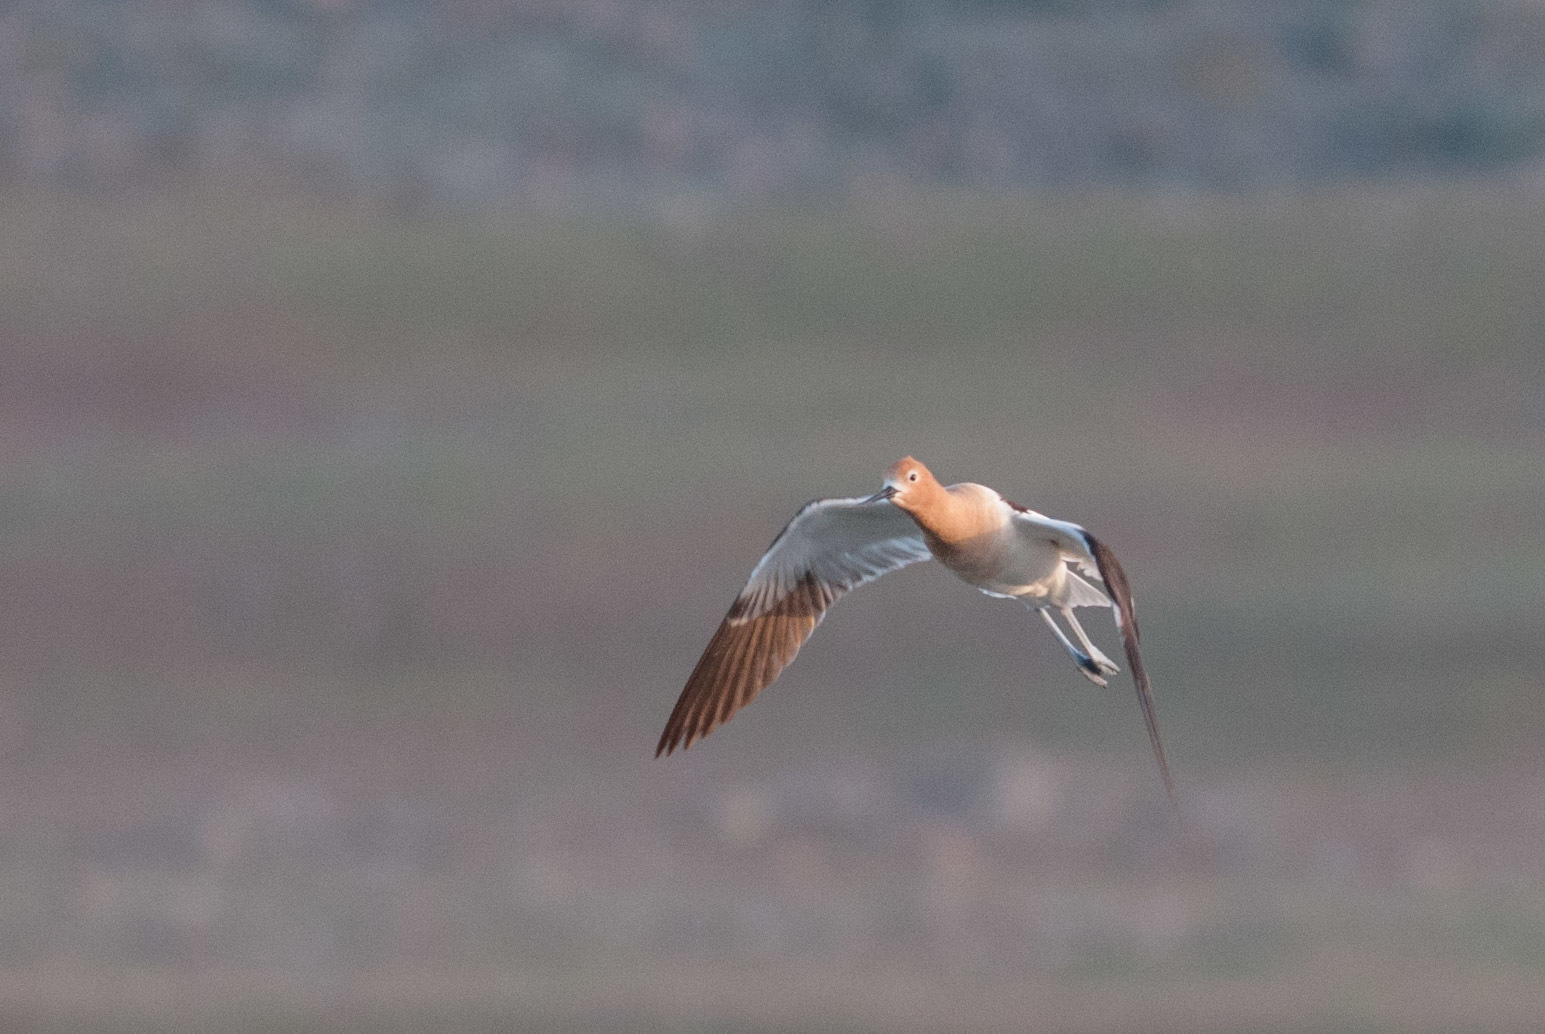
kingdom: Animalia
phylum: Chordata
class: Aves
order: Charadriiformes
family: Recurvirostridae
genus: Recurvirostra
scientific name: Recurvirostra americana
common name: American avocet
